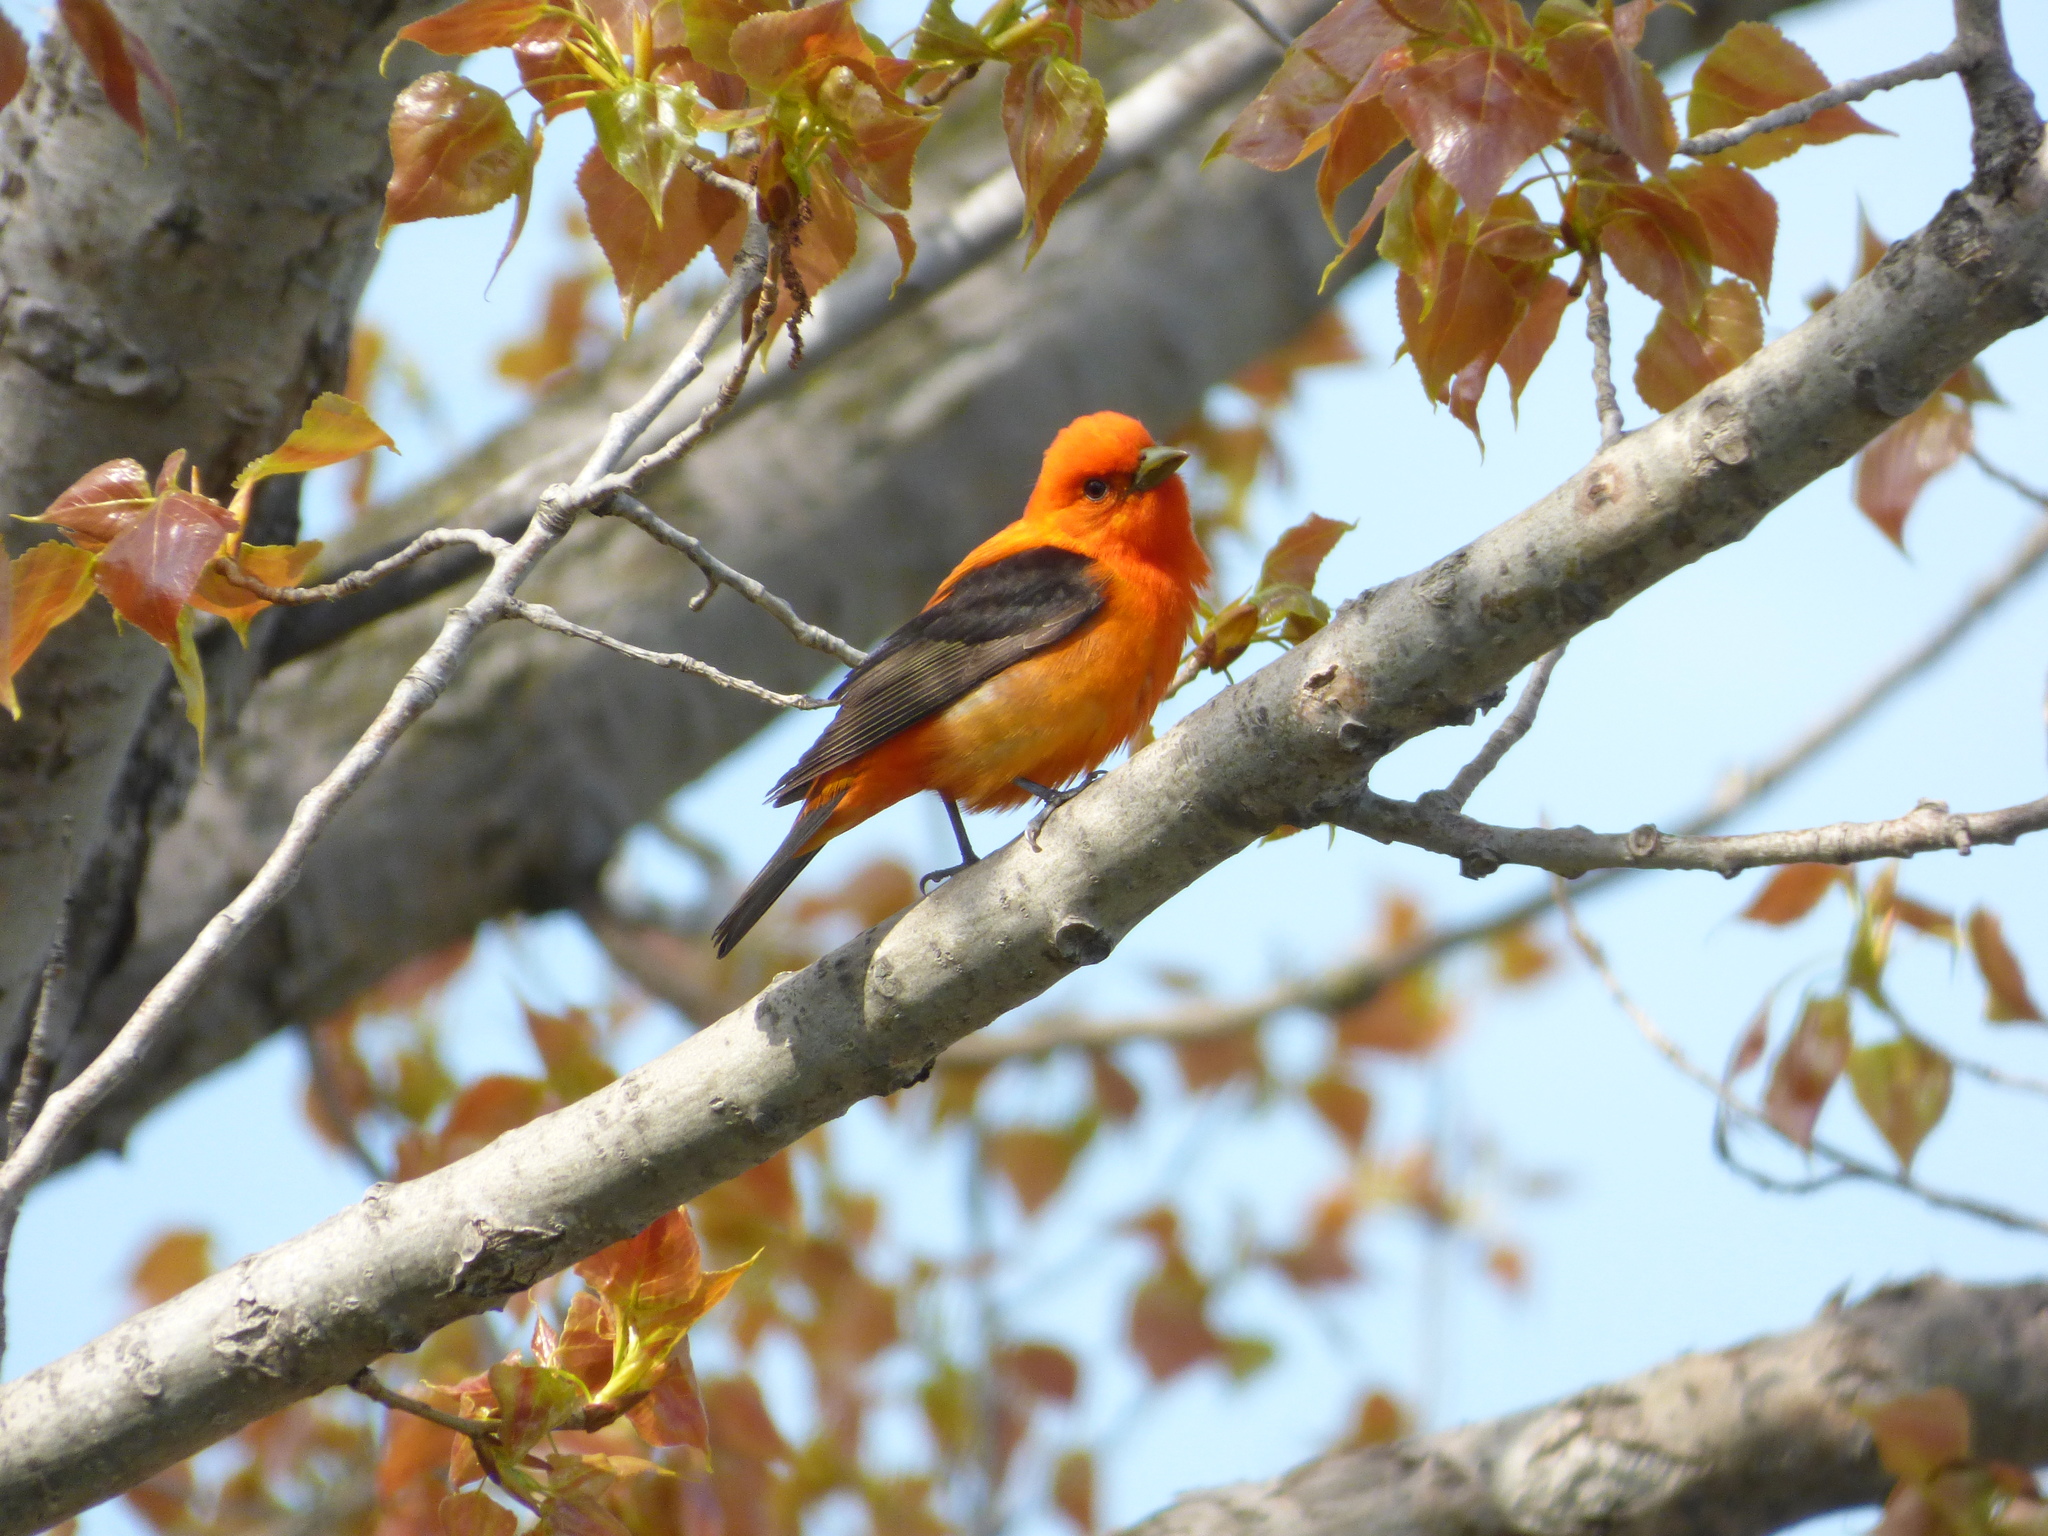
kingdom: Animalia
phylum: Chordata
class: Aves
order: Passeriformes
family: Cardinalidae
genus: Piranga
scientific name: Piranga olivacea
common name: Scarlet tanager
